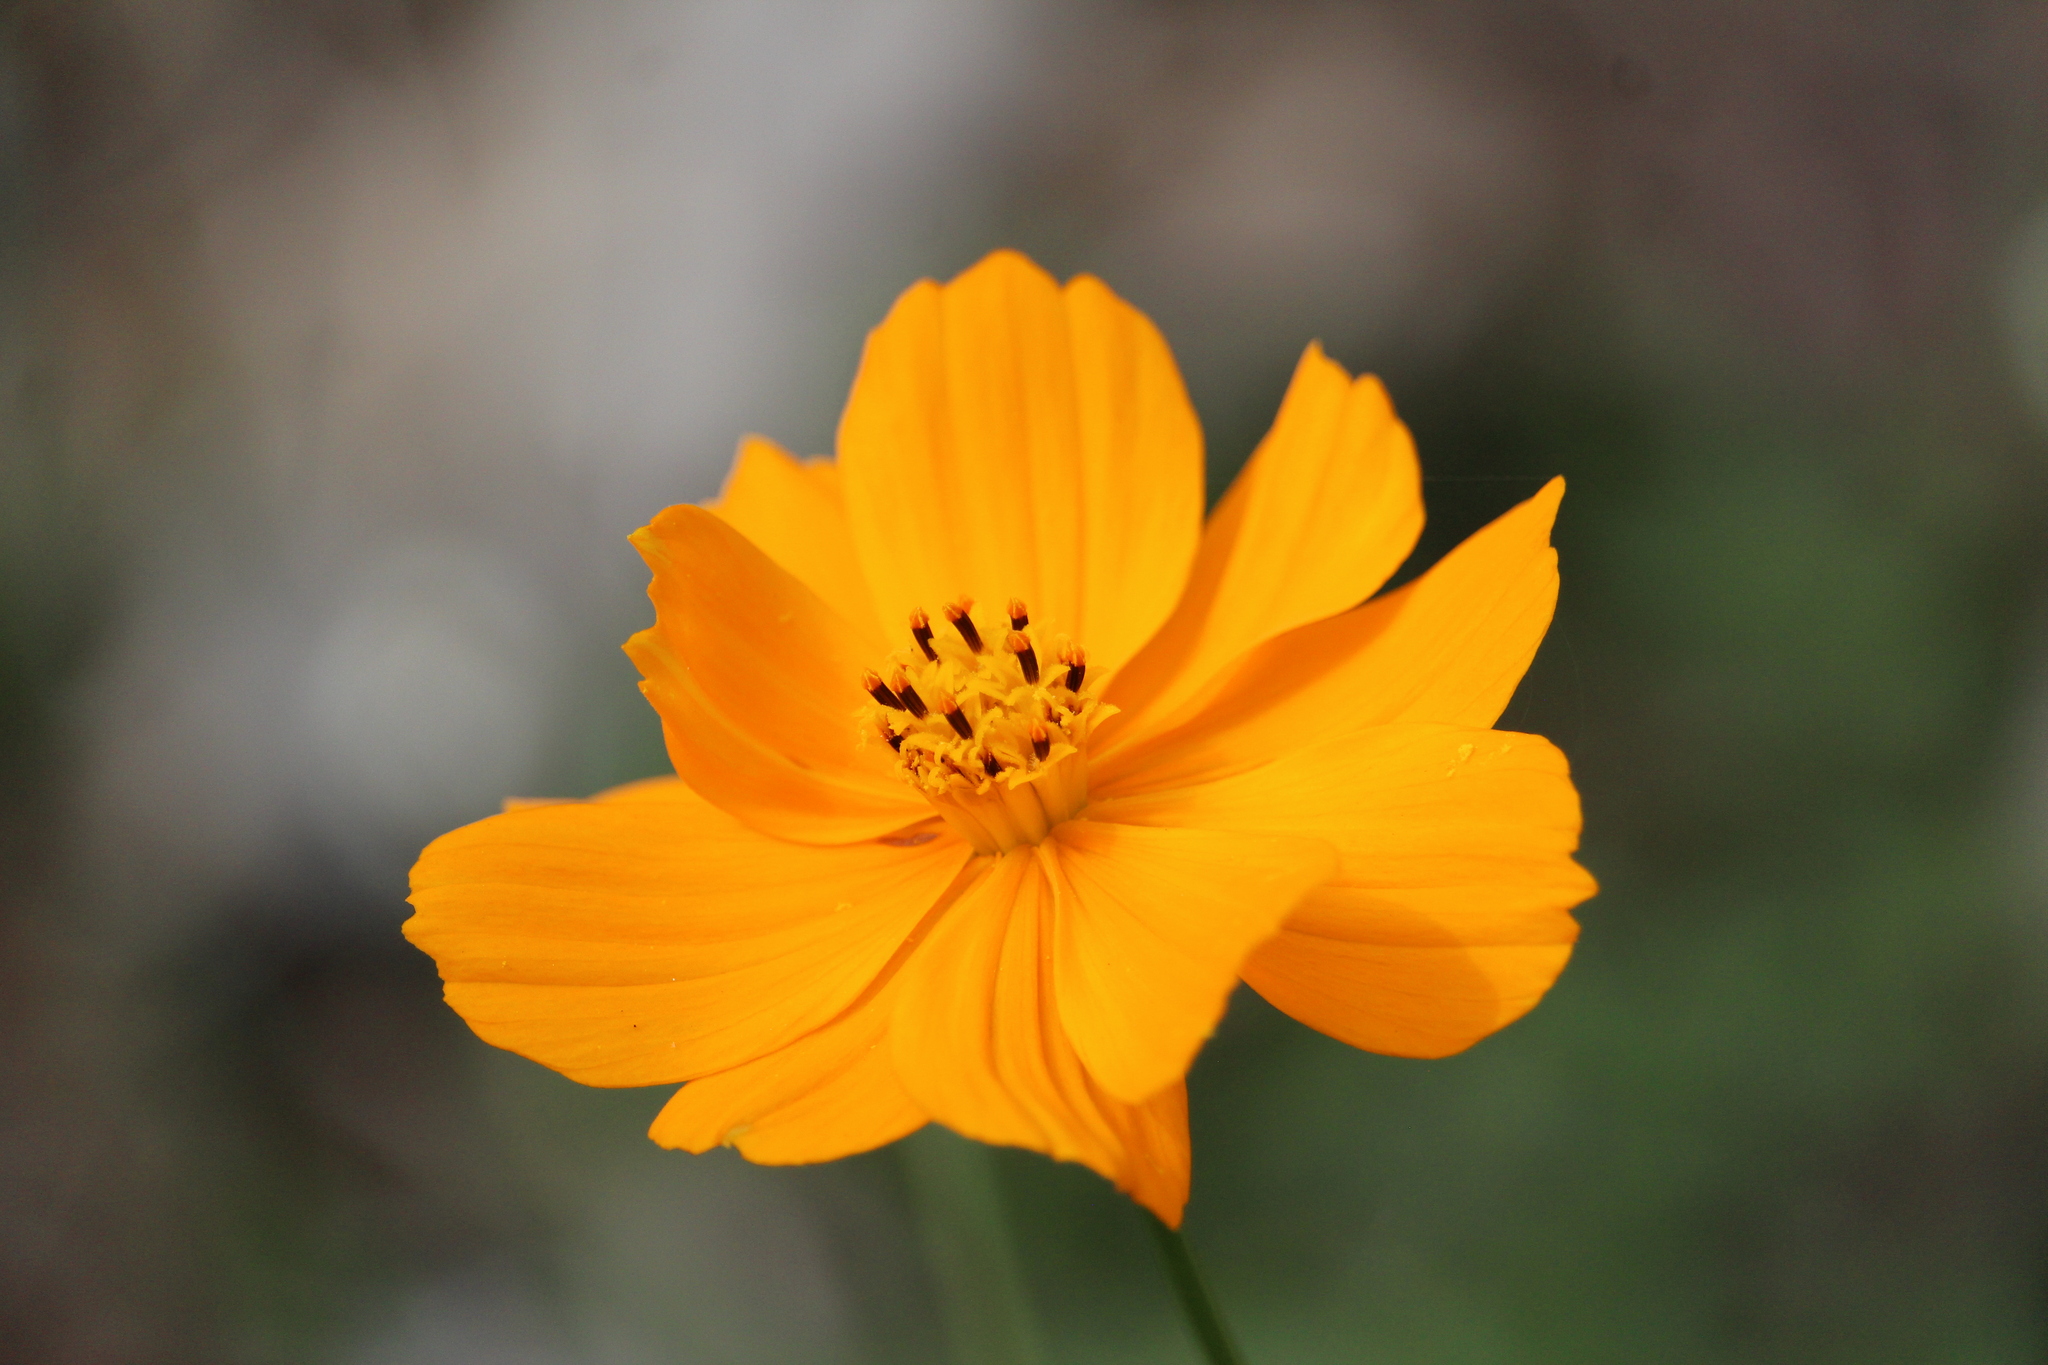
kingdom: Plantae
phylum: Tracheophyta
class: Magnoliopsida
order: Asterales
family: Asteraceae
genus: Cosmos
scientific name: Cosmos sulphureus
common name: Sulphur cosmos
